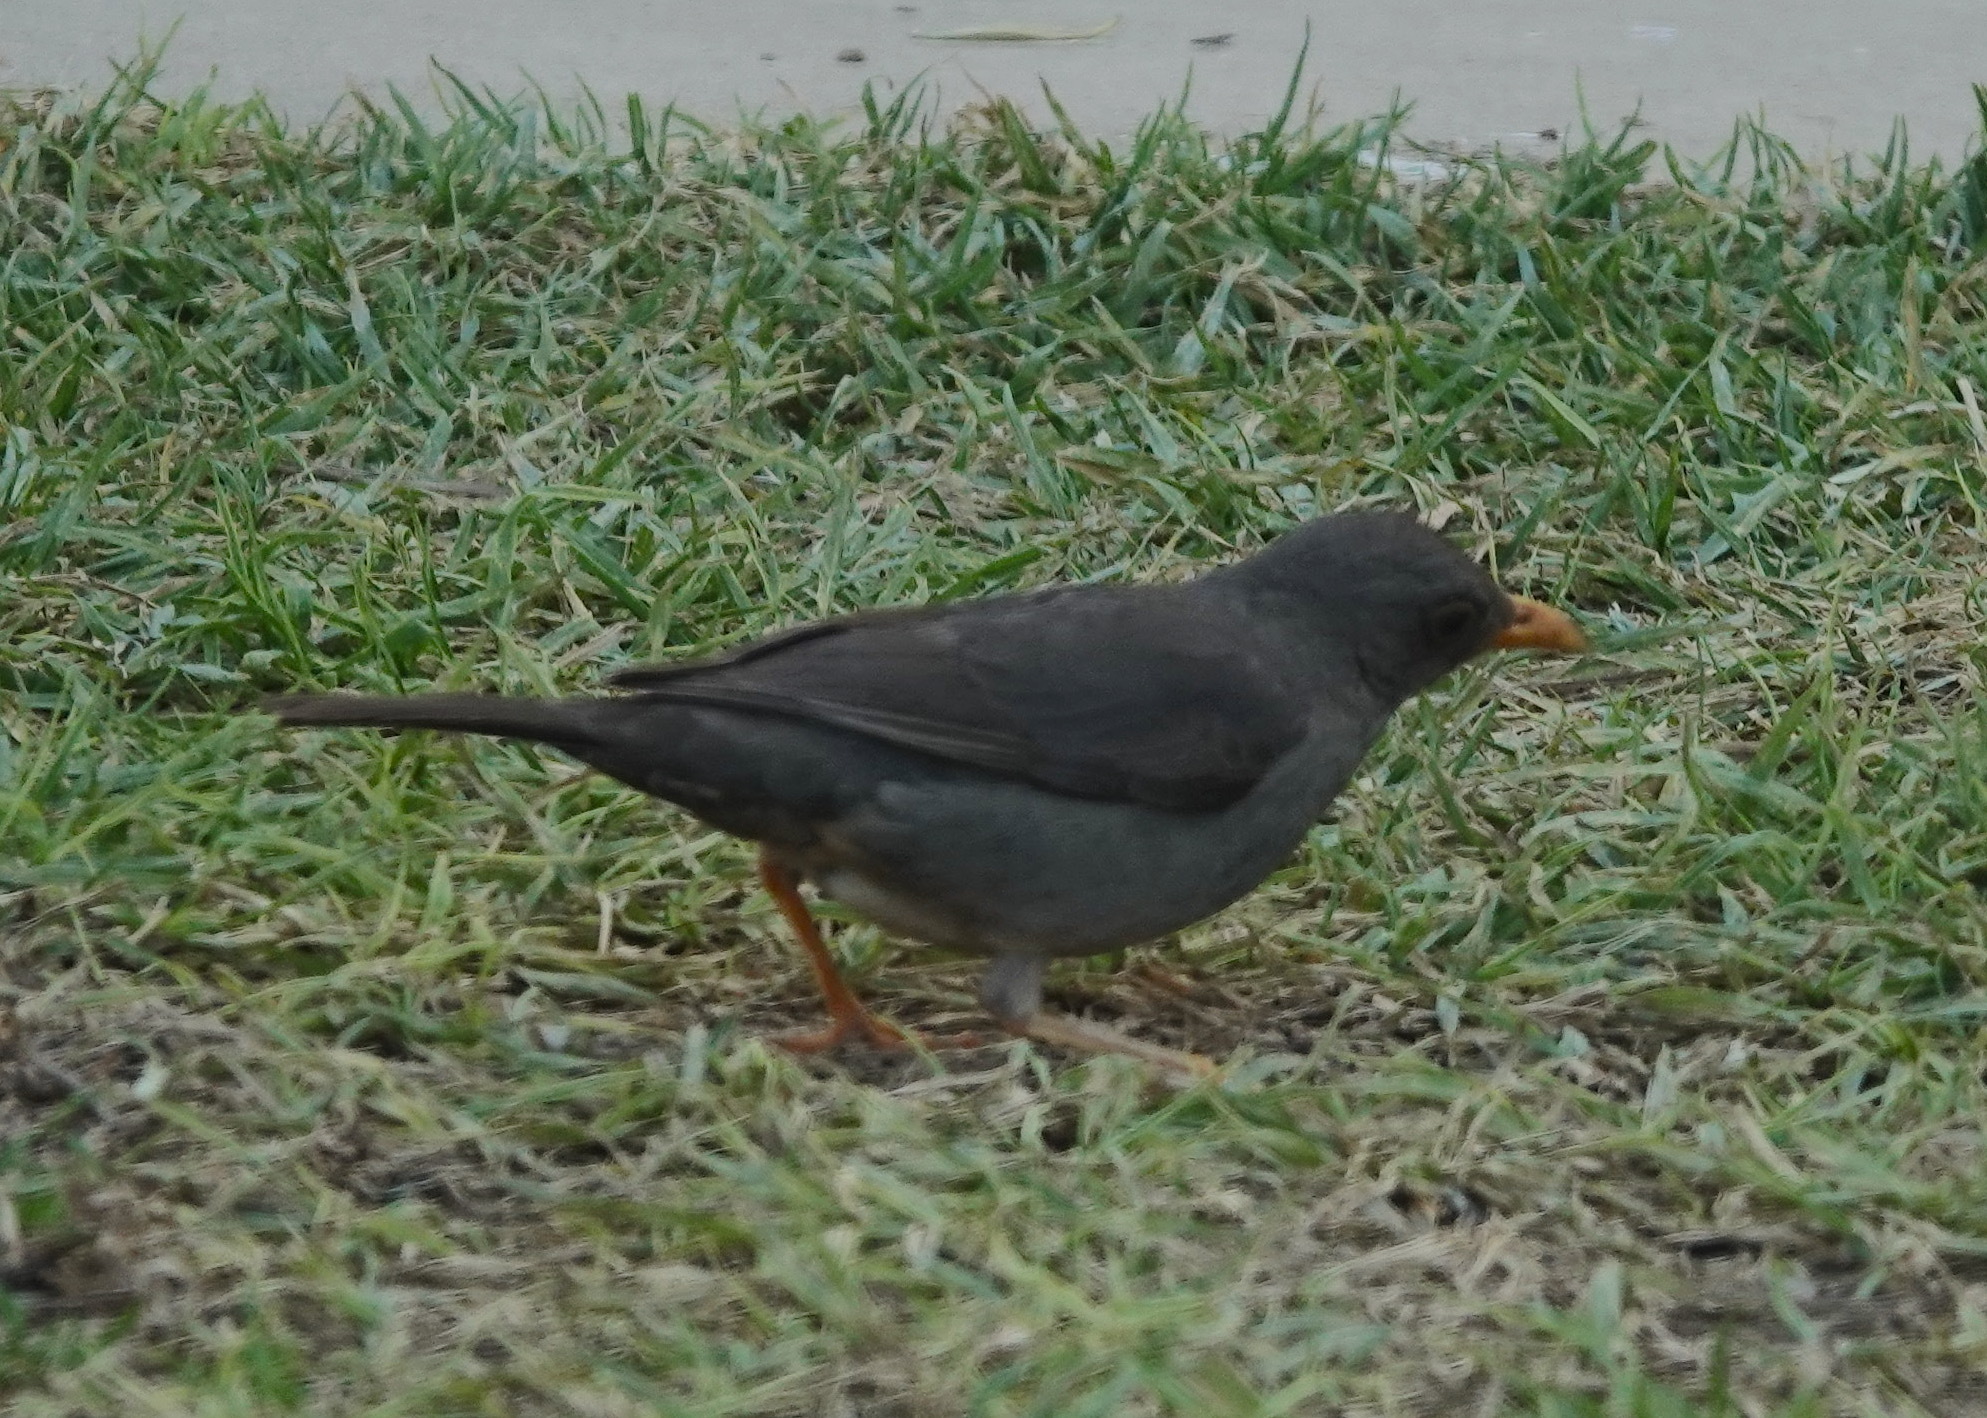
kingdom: Animalia
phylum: Chordata
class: Aves
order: Passeriformes
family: Turdidae
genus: Turdus
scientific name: Turdus smithi
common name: Karoo thrush
